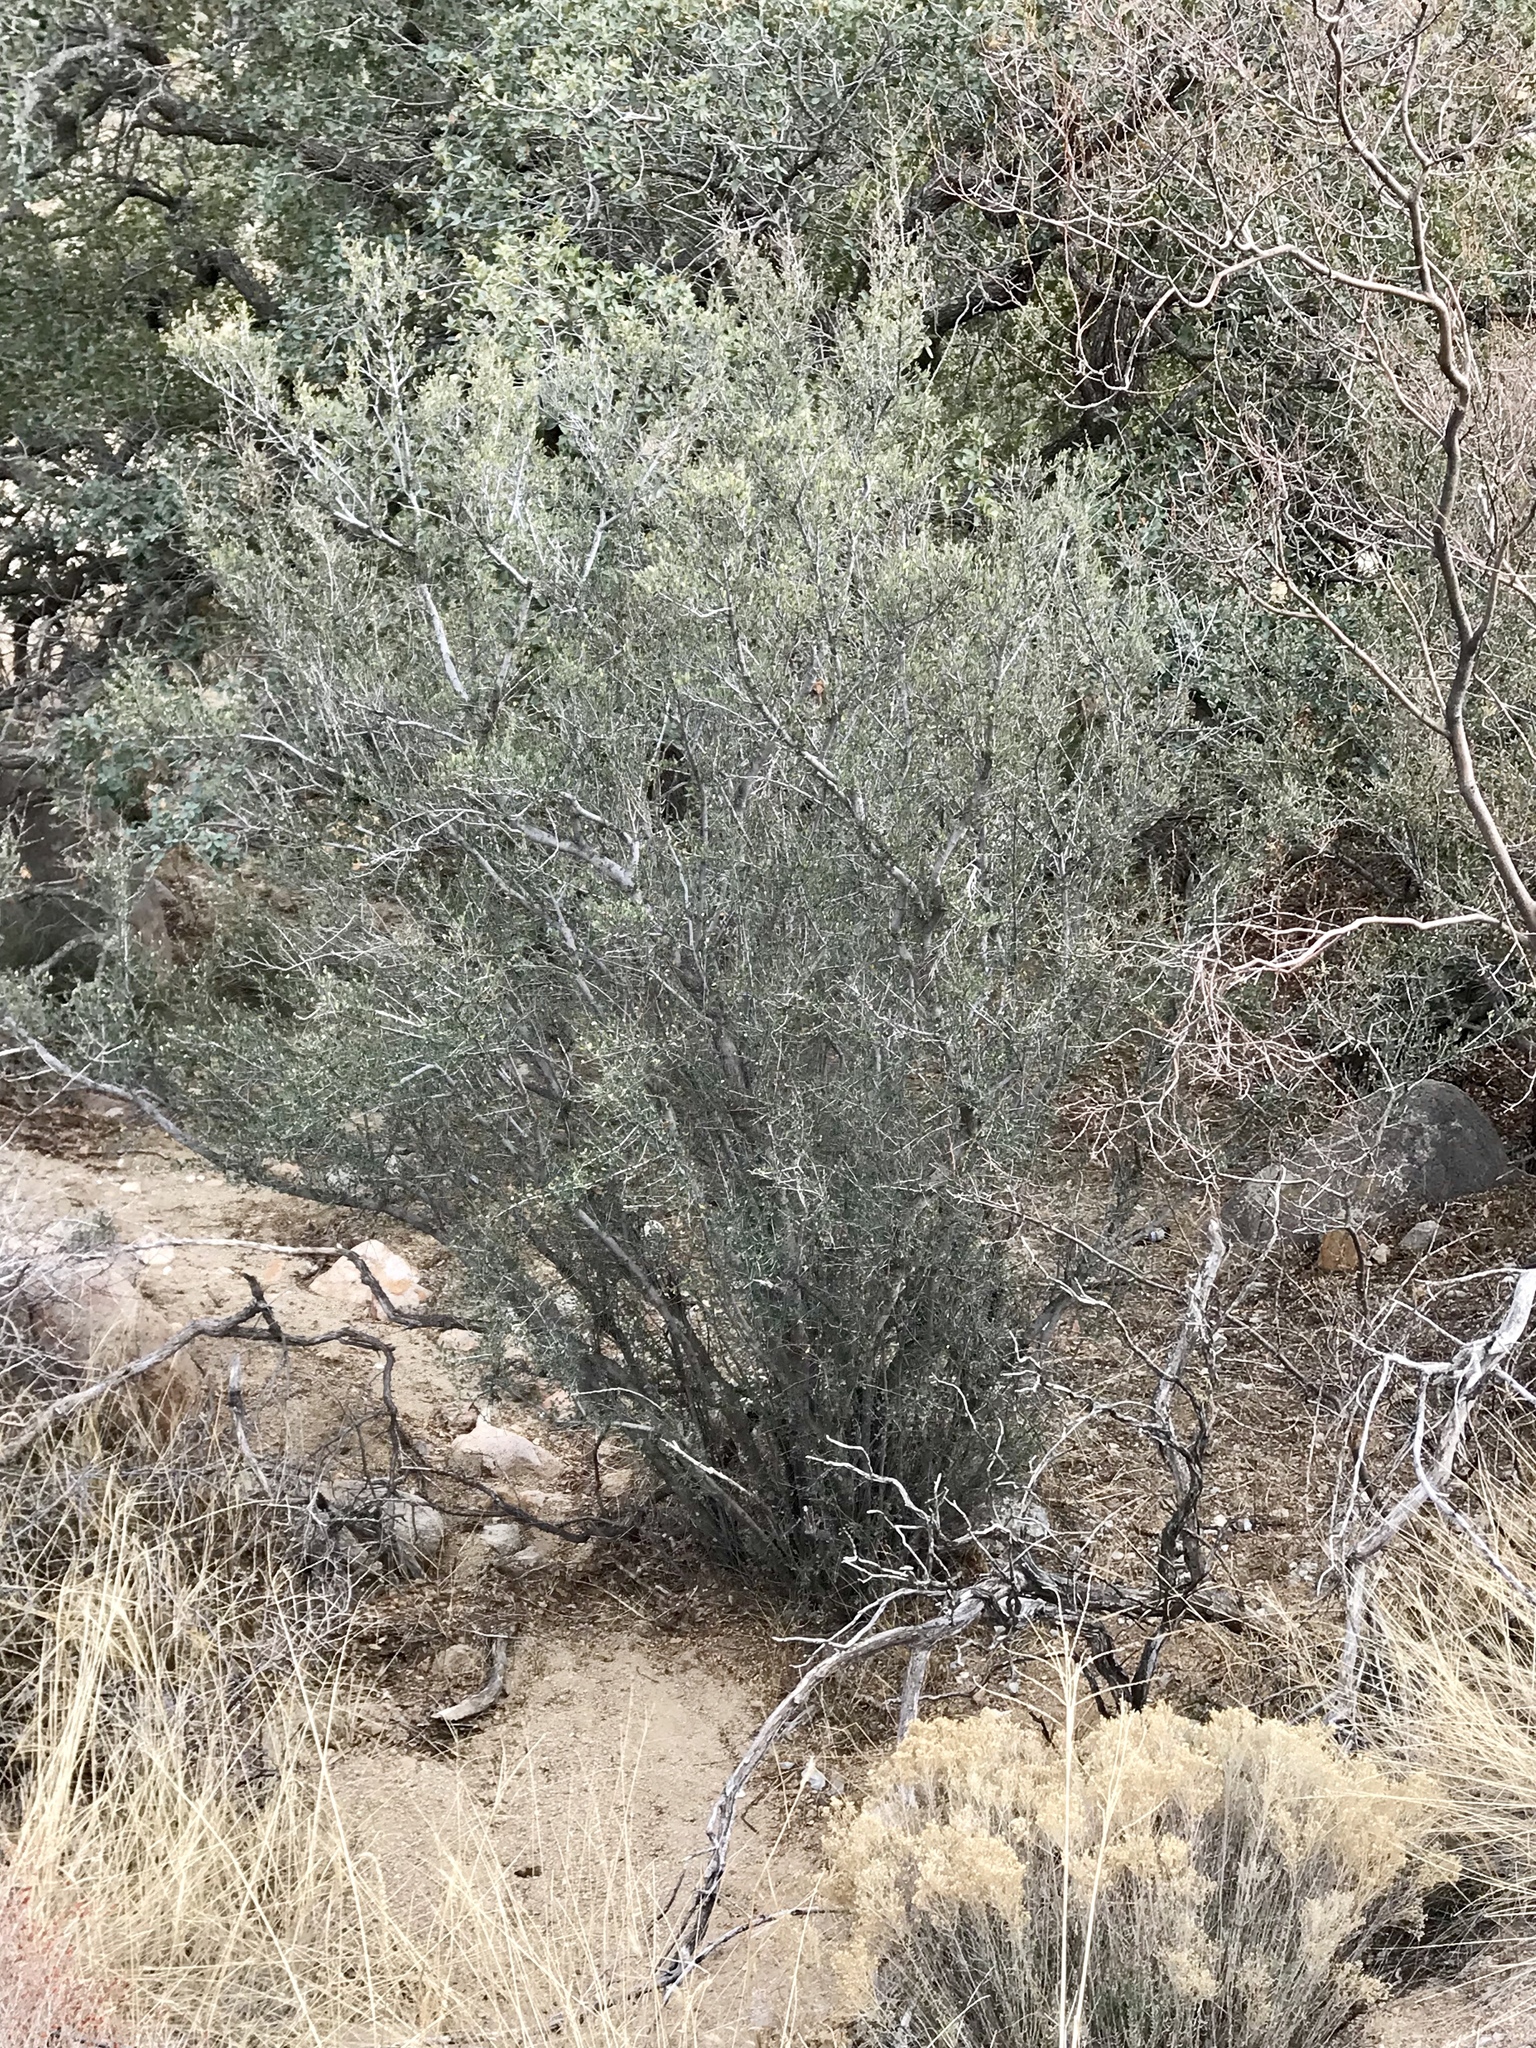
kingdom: Plantae
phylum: Tracheophyta
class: Magnoliopsida
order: Rosales
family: Rosaceae
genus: Cercocarpus
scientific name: Cercocarpus breviflorus
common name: Wright's mountain-mahogany
